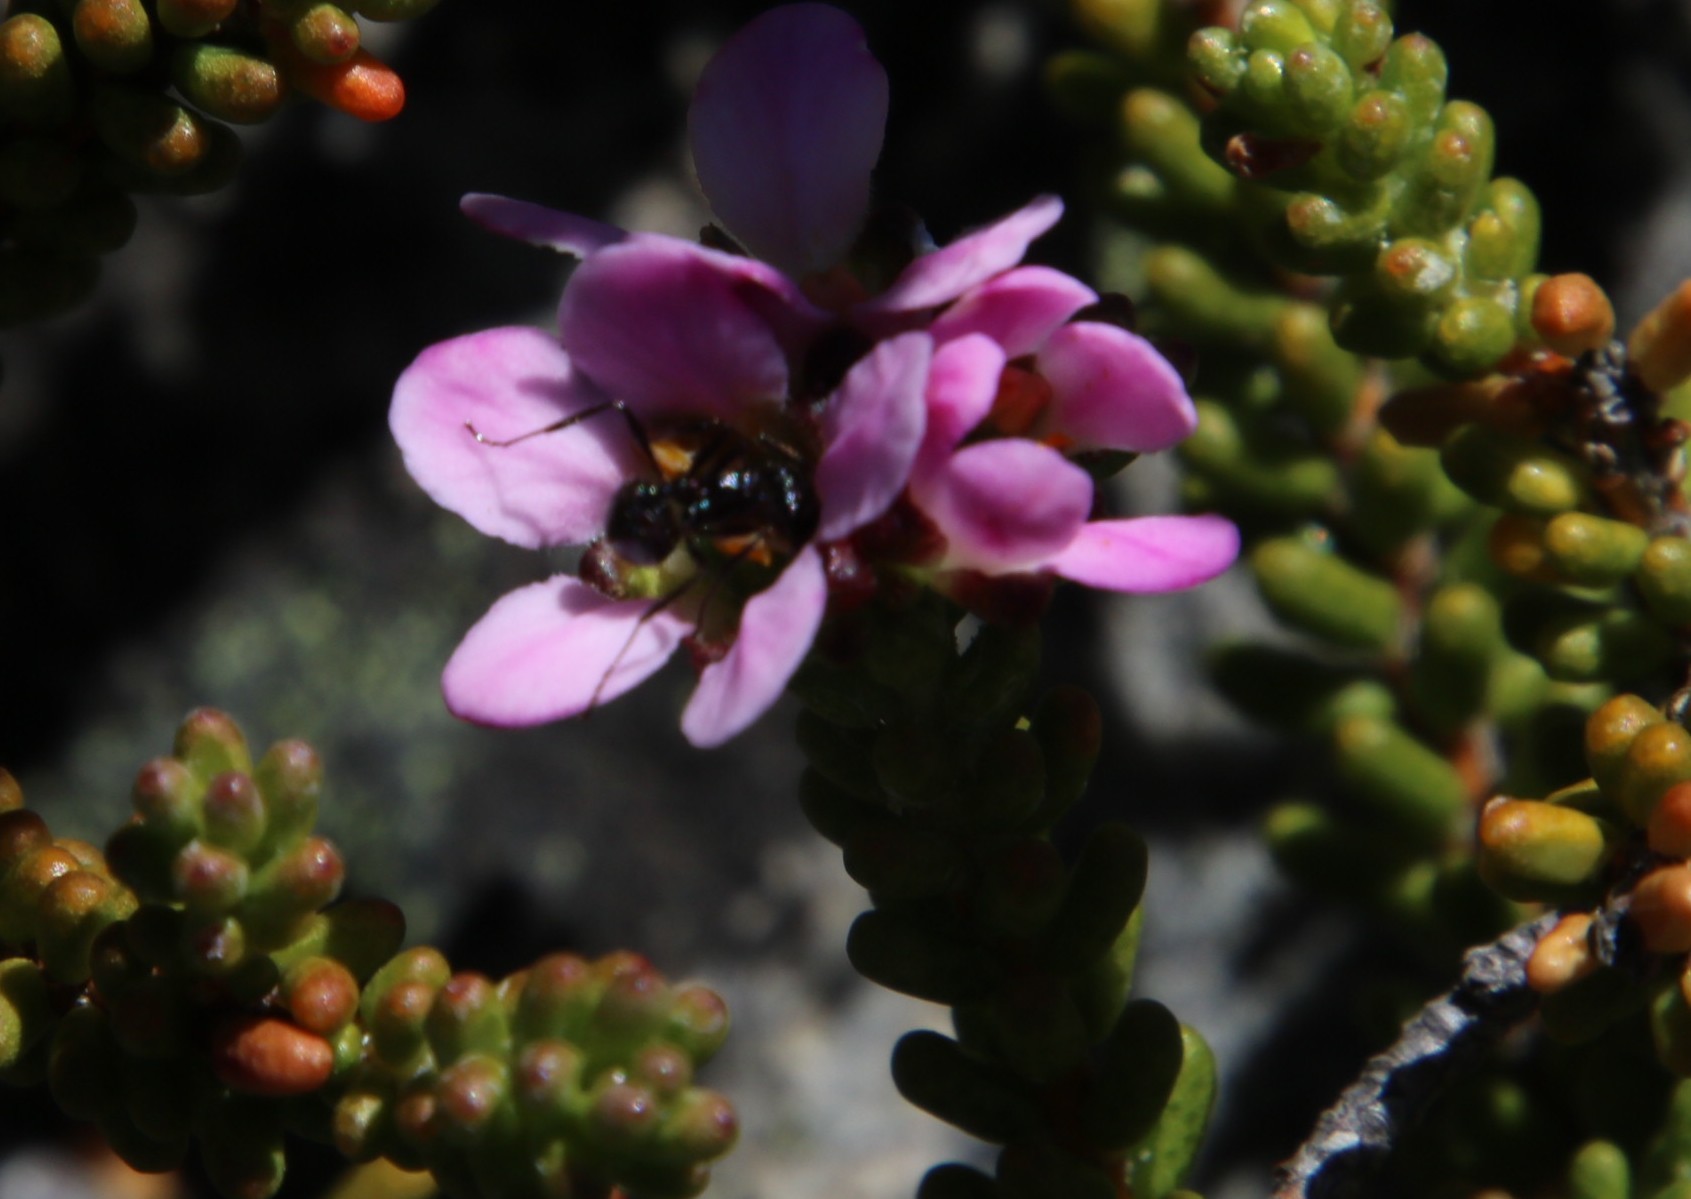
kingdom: Animalia
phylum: Arthropoda
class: Insecta
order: Hymenoptera
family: Formicidae
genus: Myrmicaria
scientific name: Myrmicaria nigra
